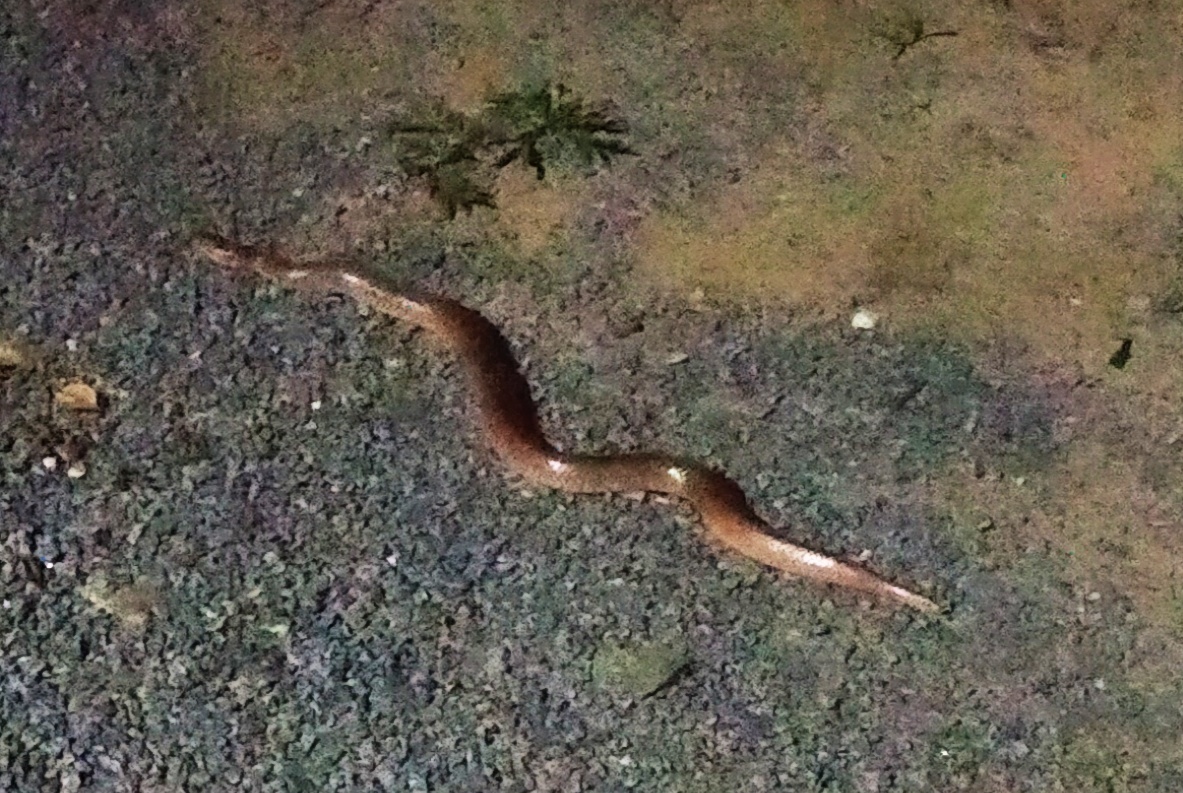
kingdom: Animalia
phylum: Chordata
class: Squamata
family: Boidae
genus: Eryx
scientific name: Eryx johnii
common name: Brown sand boa
